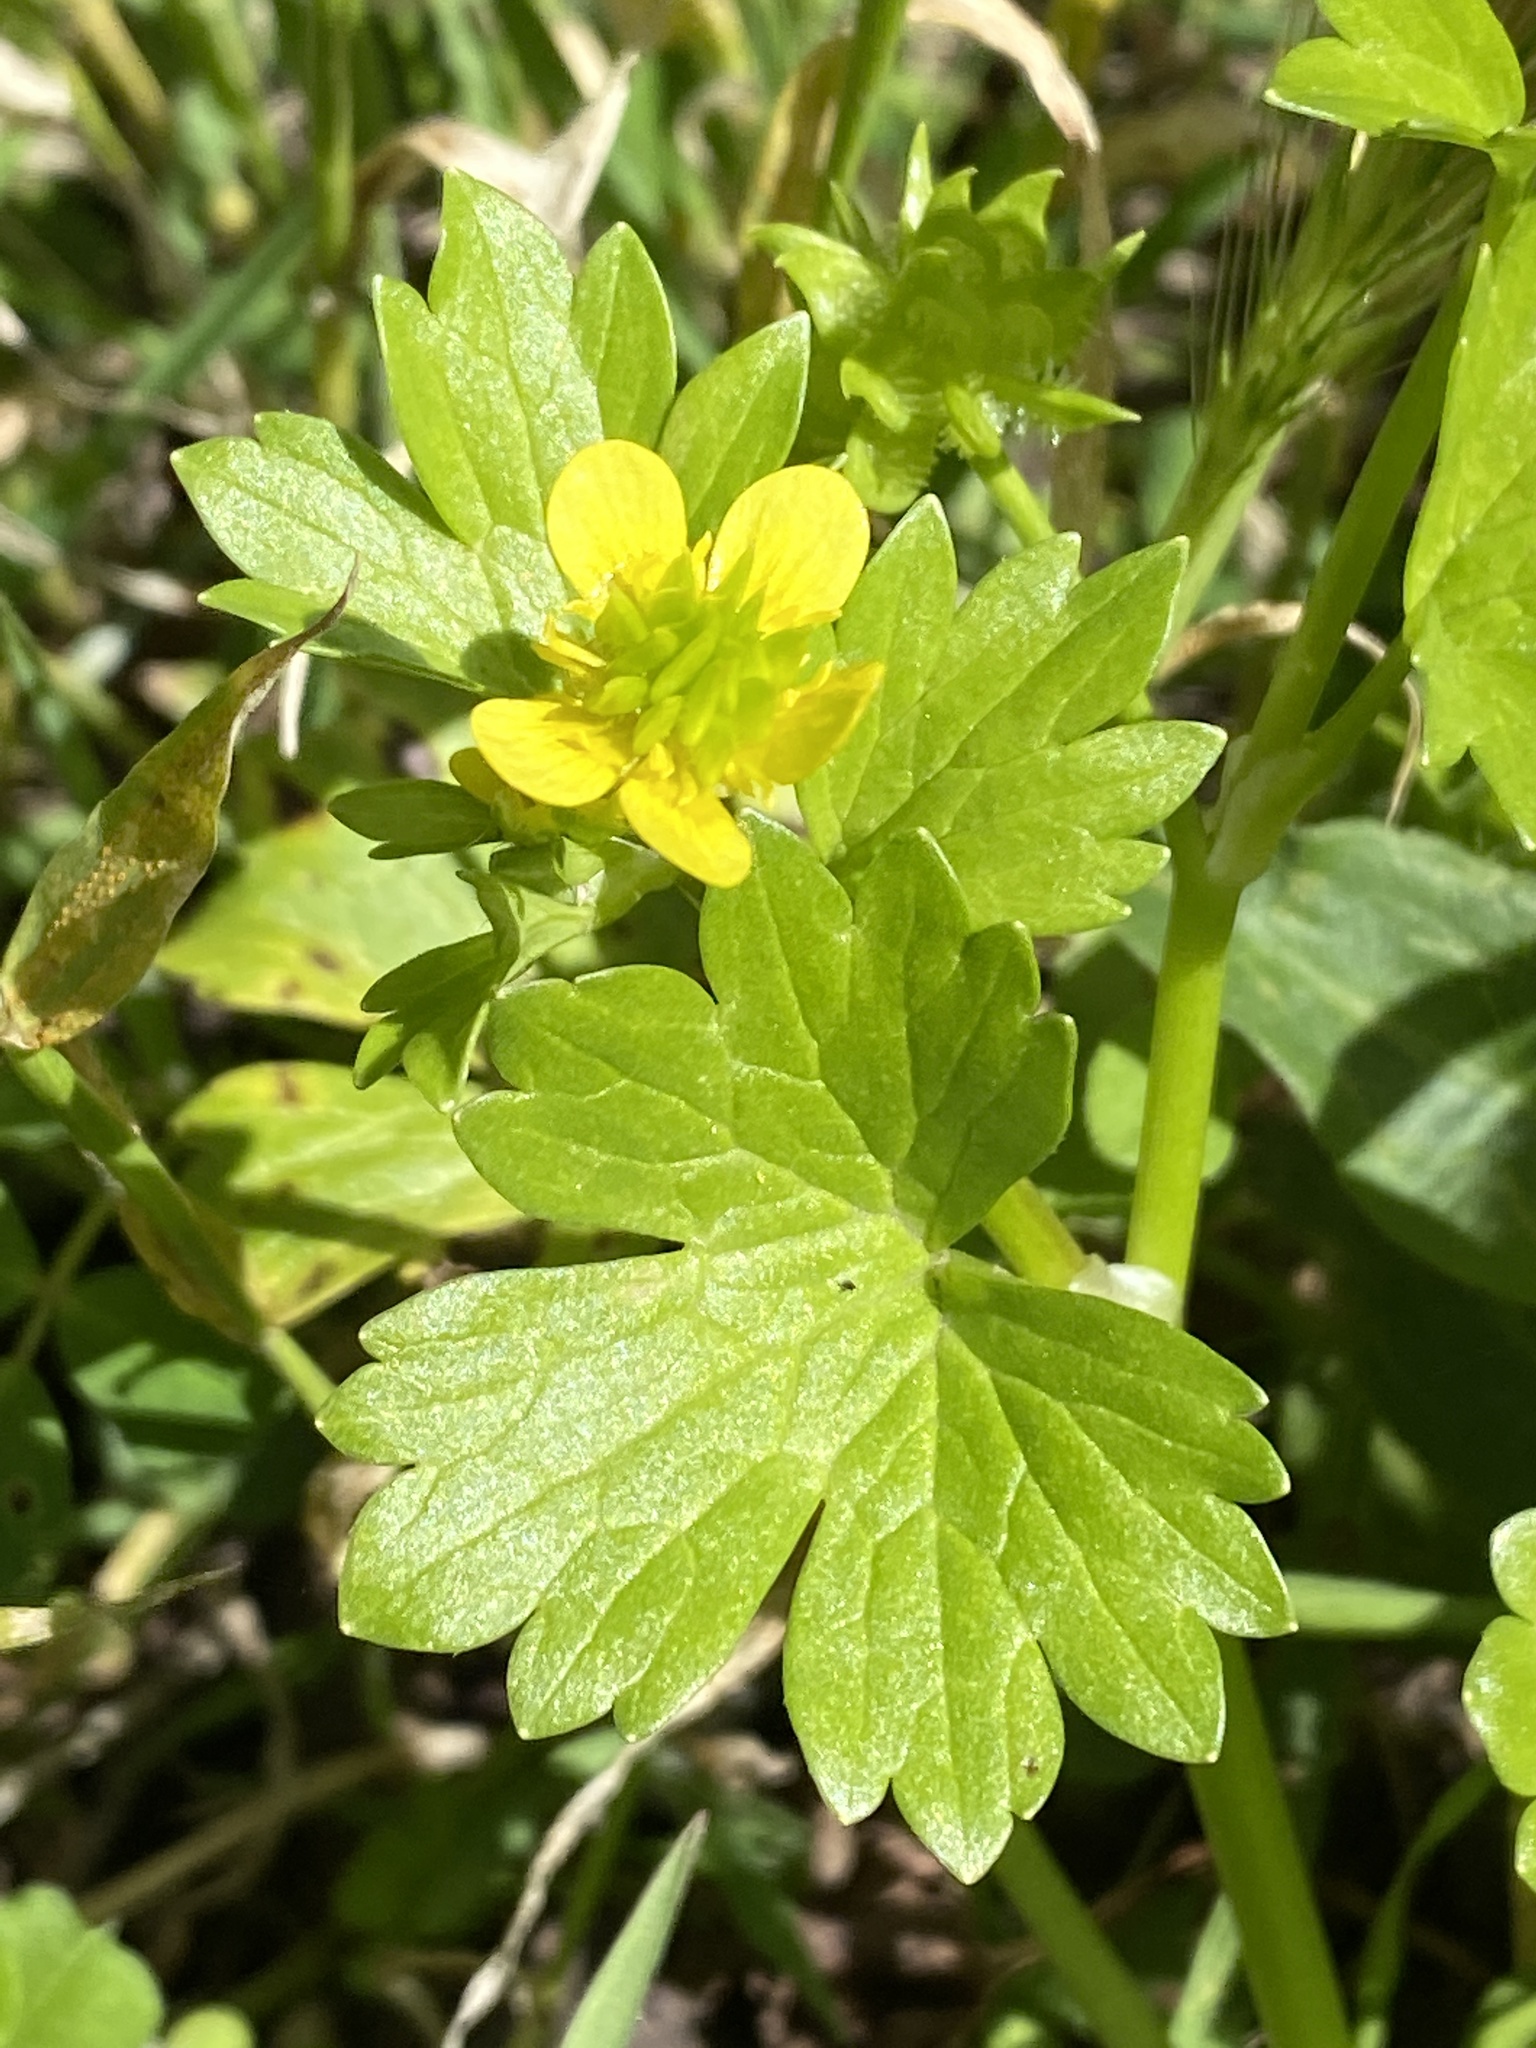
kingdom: Plantae
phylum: Tracheophyta
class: Magnoliopsida
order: Ranunculales
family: Ranunculaceae
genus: Ranunculus
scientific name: Ranunculus muricatus
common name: Rough-fruited buttercup
